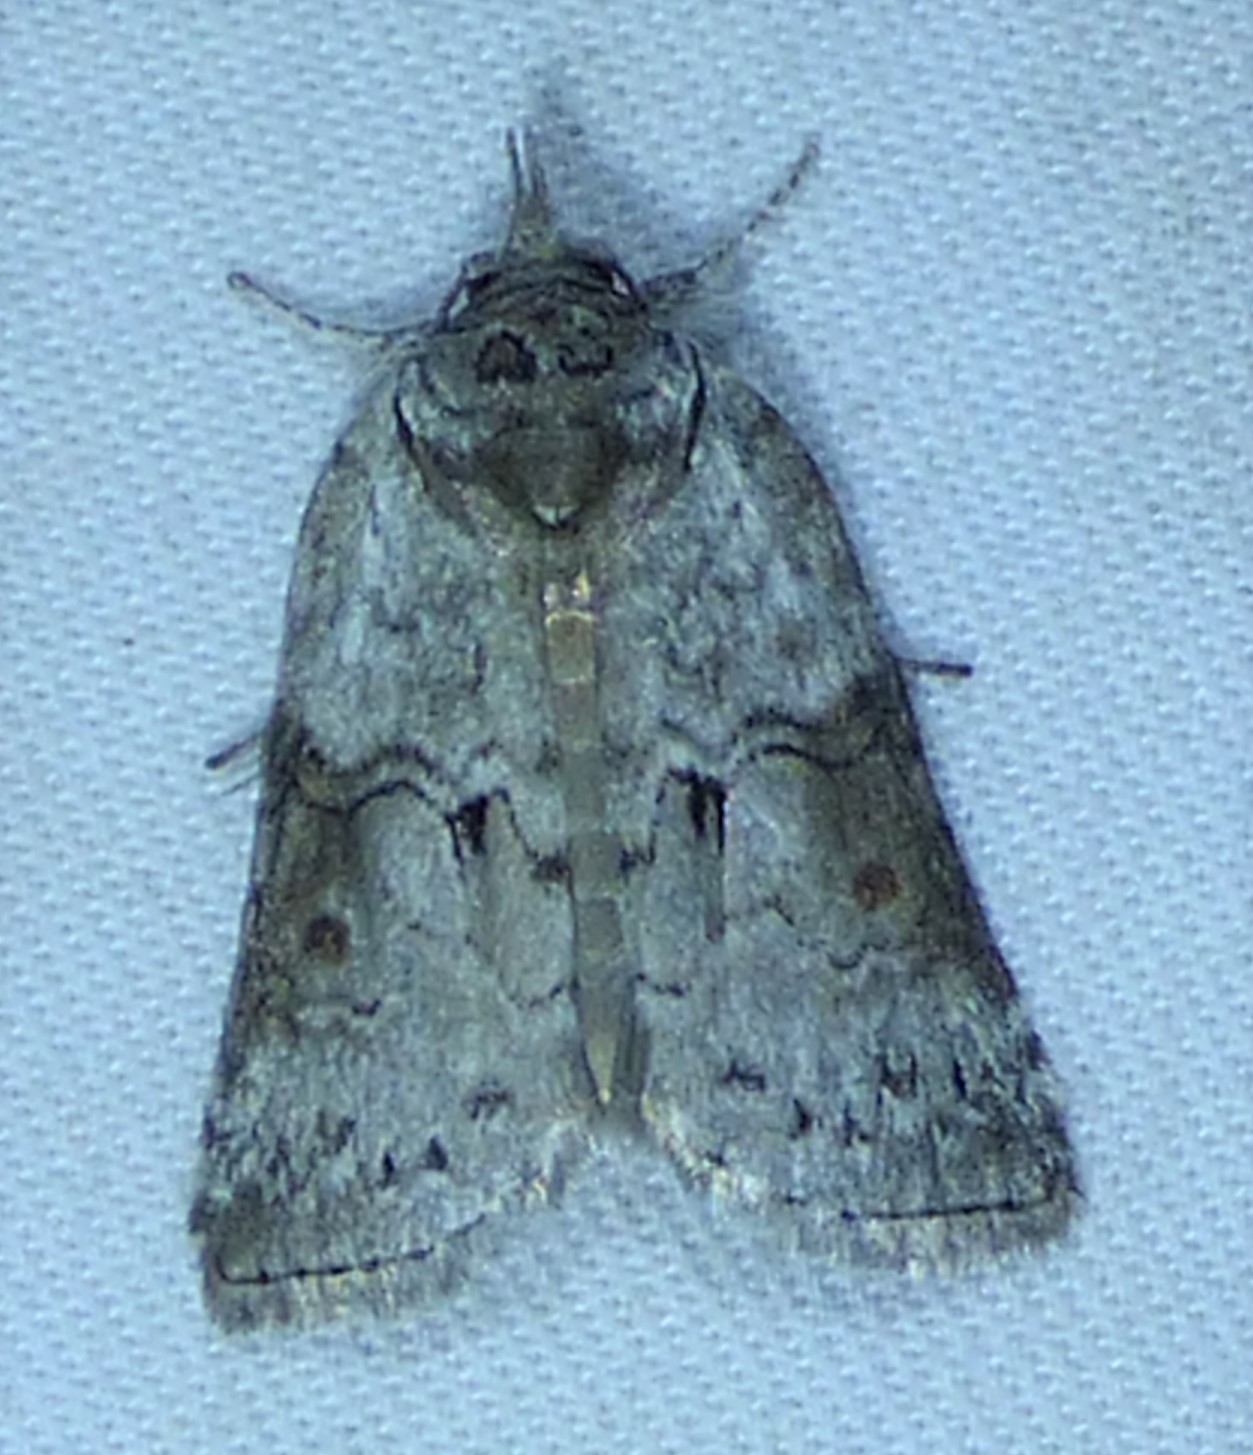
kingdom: Animalia
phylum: Arthropoda
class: Insecta
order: Lepidoptera
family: Nolidae
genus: Nycteola
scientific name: Nycteola metaspilella
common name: Forgotten frigid owlet
